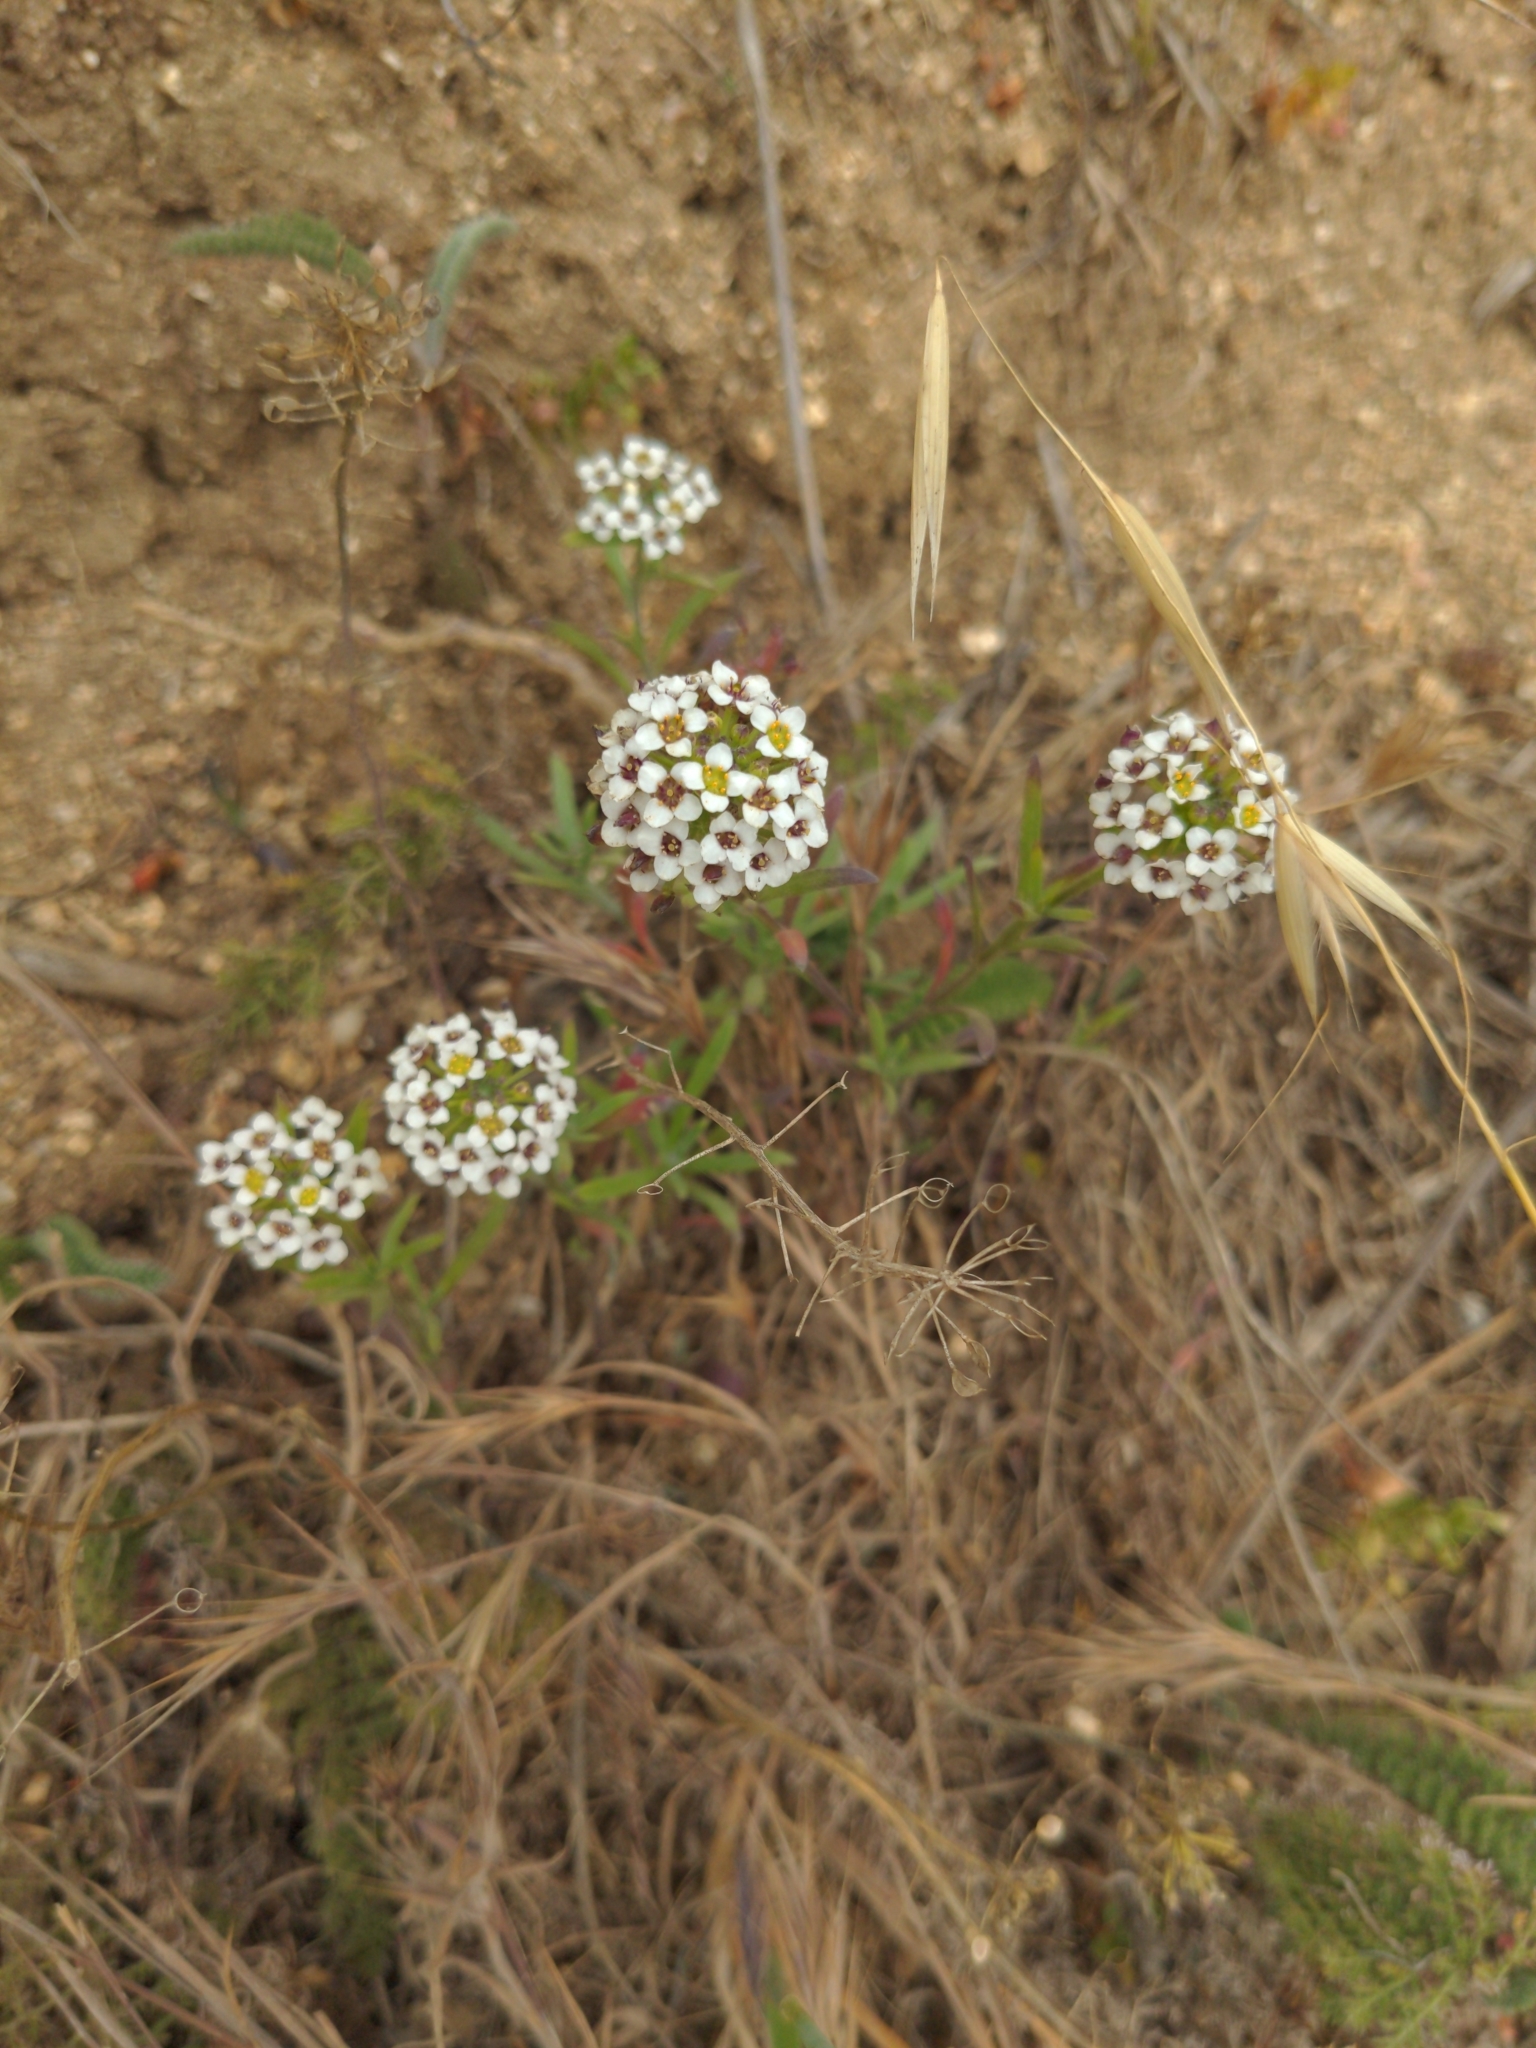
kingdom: Plantae
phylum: Tracheophyta
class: Magnoliopsida
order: Brassicales
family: Brassicaceae
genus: Lobularia
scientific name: Lobularia maritima
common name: Sweet alison
